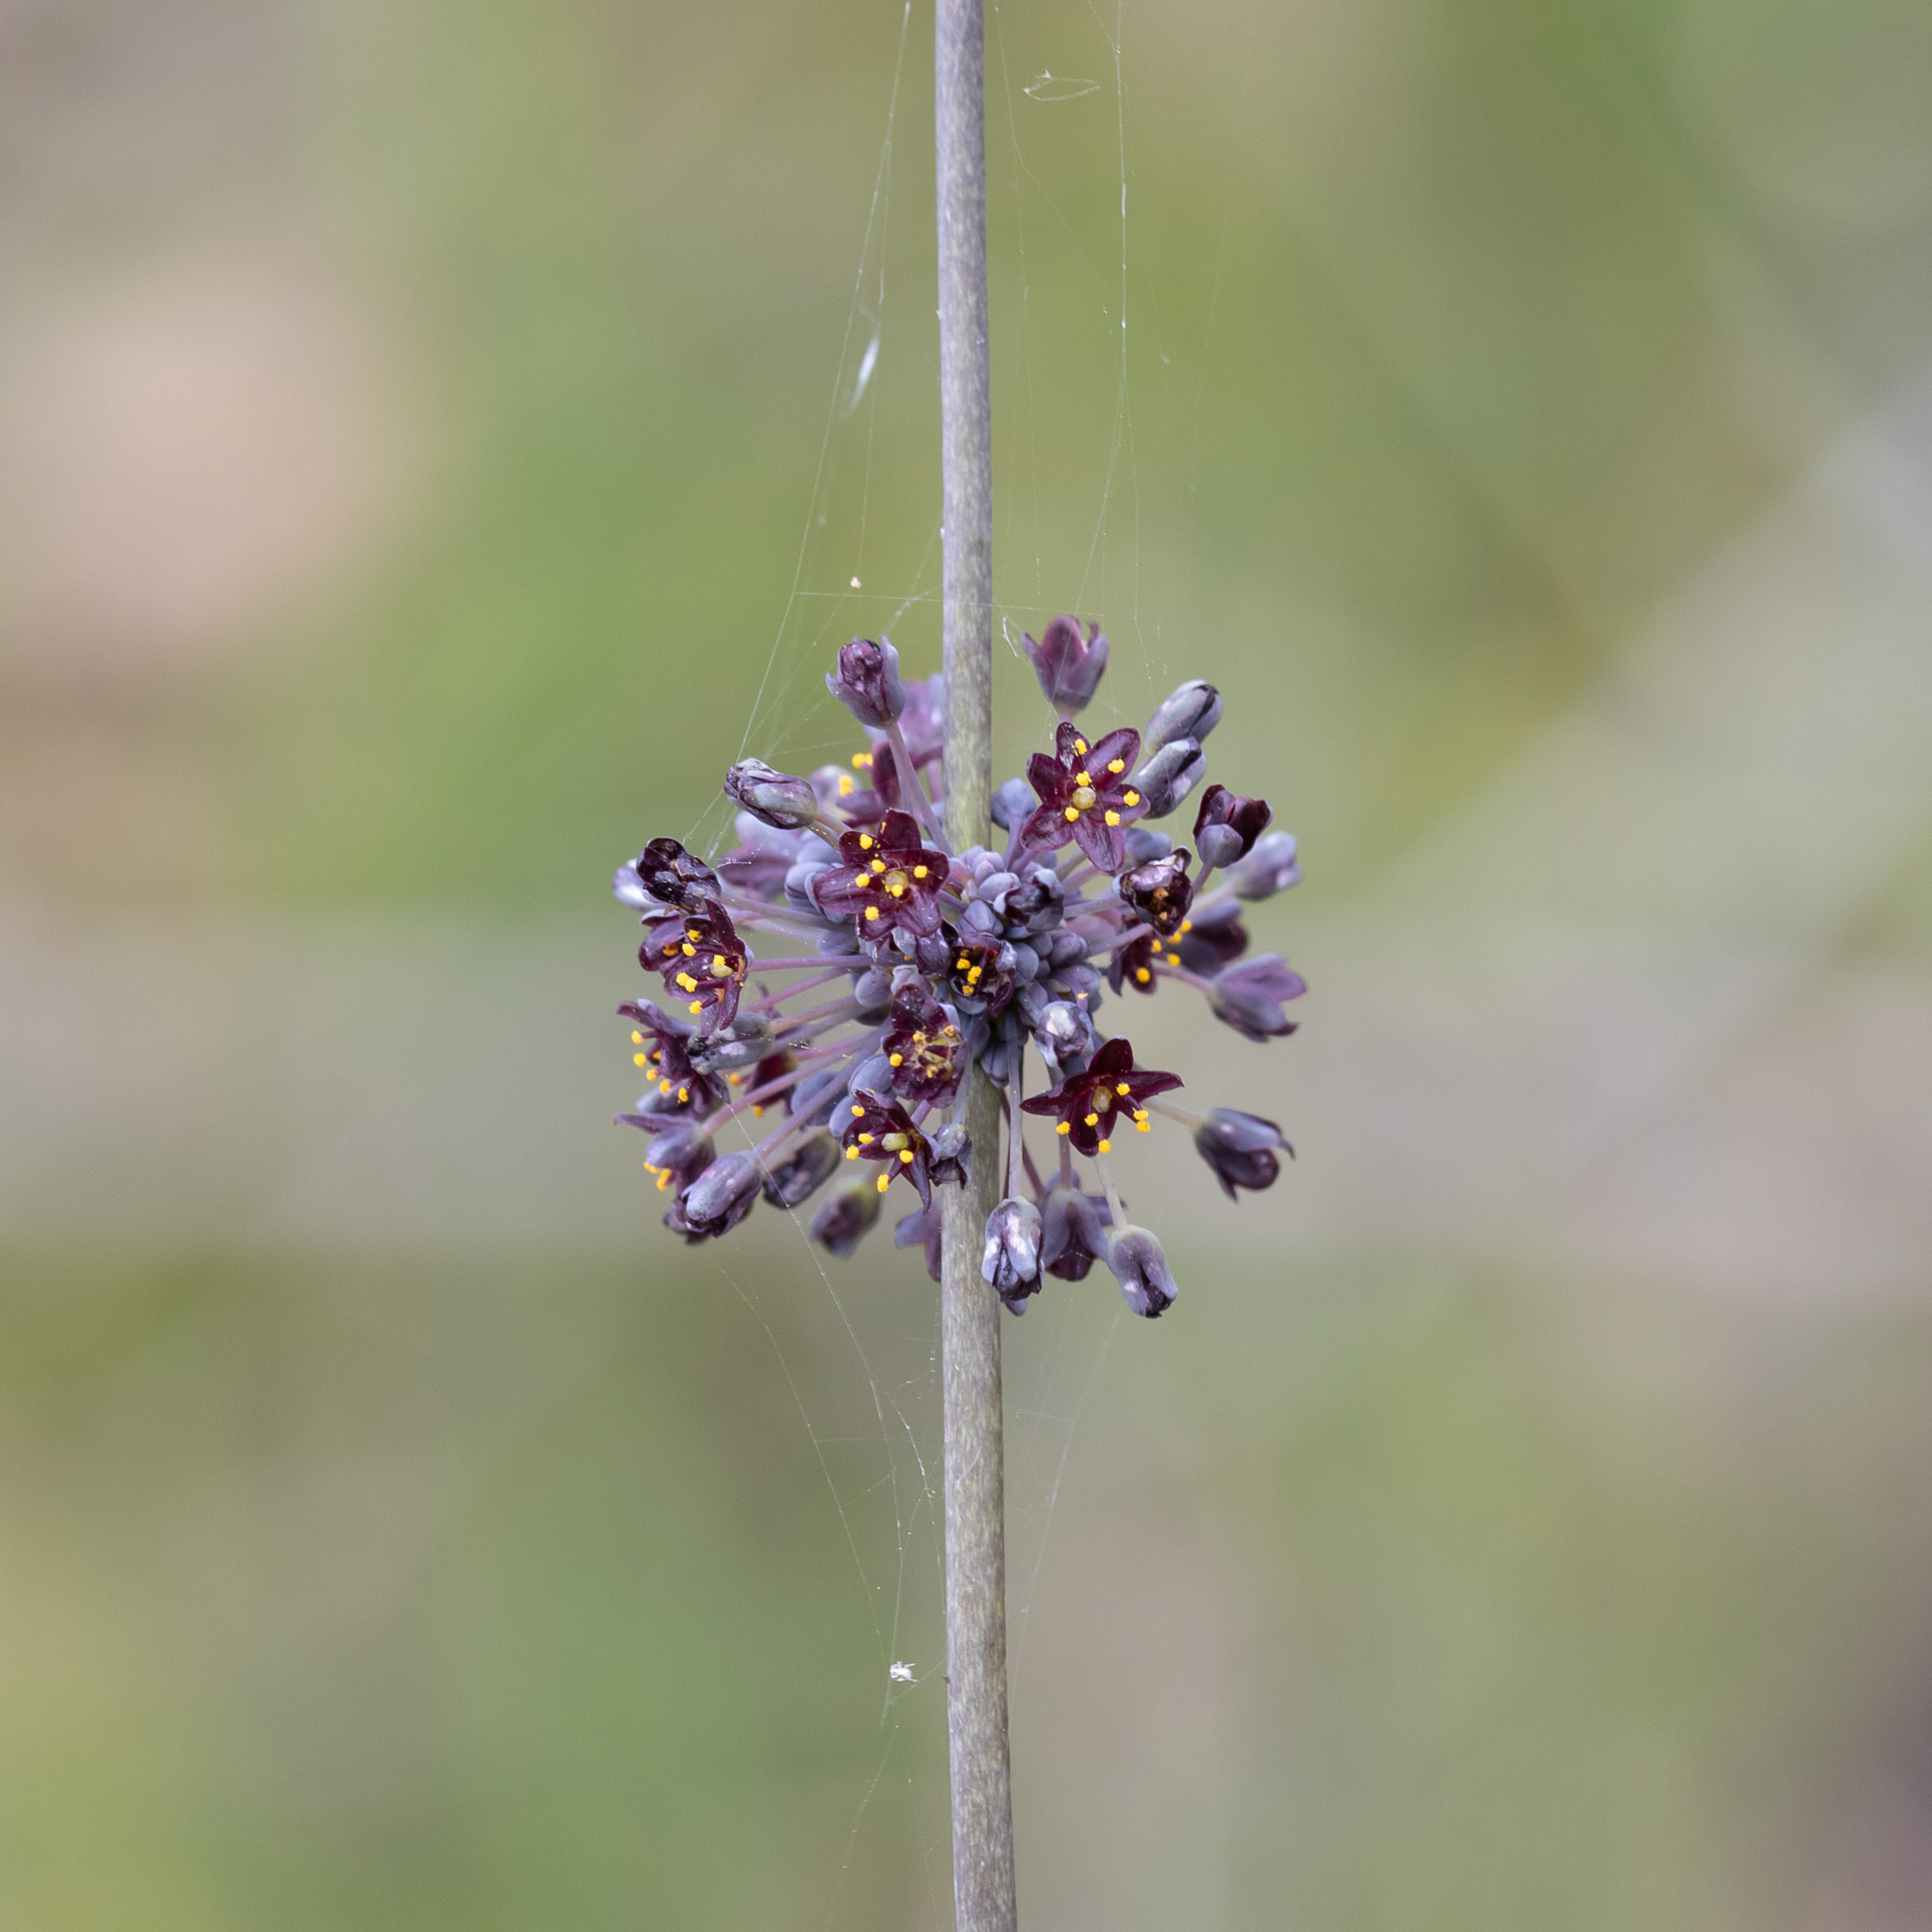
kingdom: Plantae
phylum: Tracheophyta
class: Liliopsida
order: Asparagales
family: Asparagaceae
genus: Lomandra
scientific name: Lomandra purpurea
